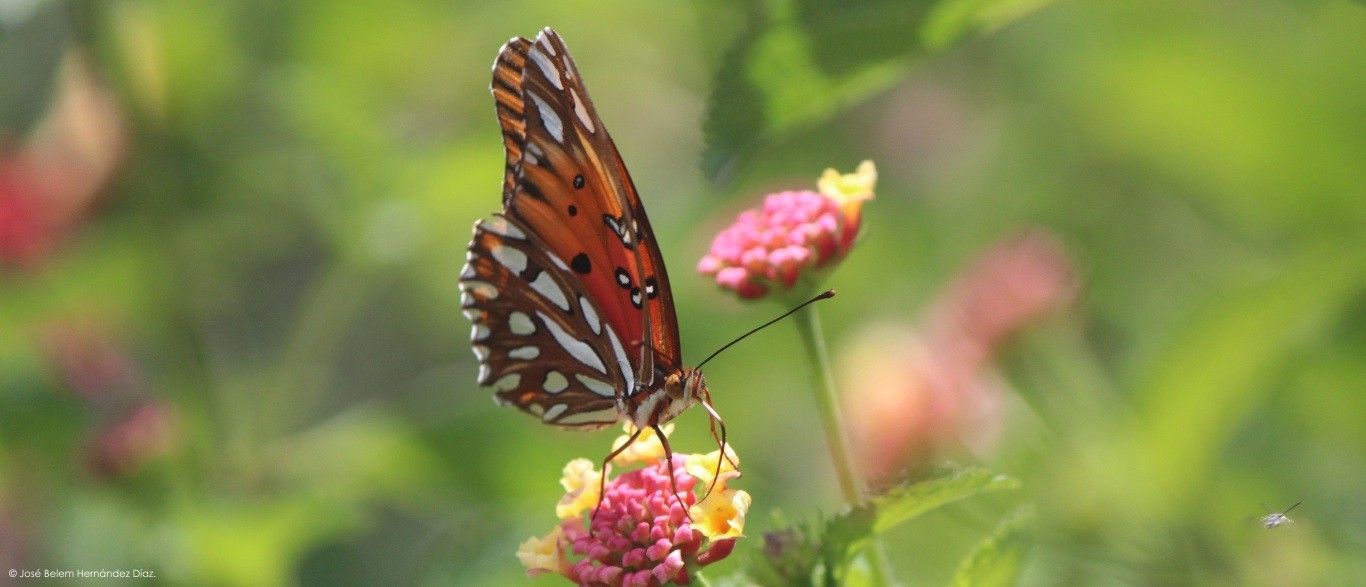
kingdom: Animalia
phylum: Arthropoda
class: Insecta
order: Lepidoptera
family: Nymphalidae
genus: Dione
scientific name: Dione vanillae
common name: Gulf fritillary
